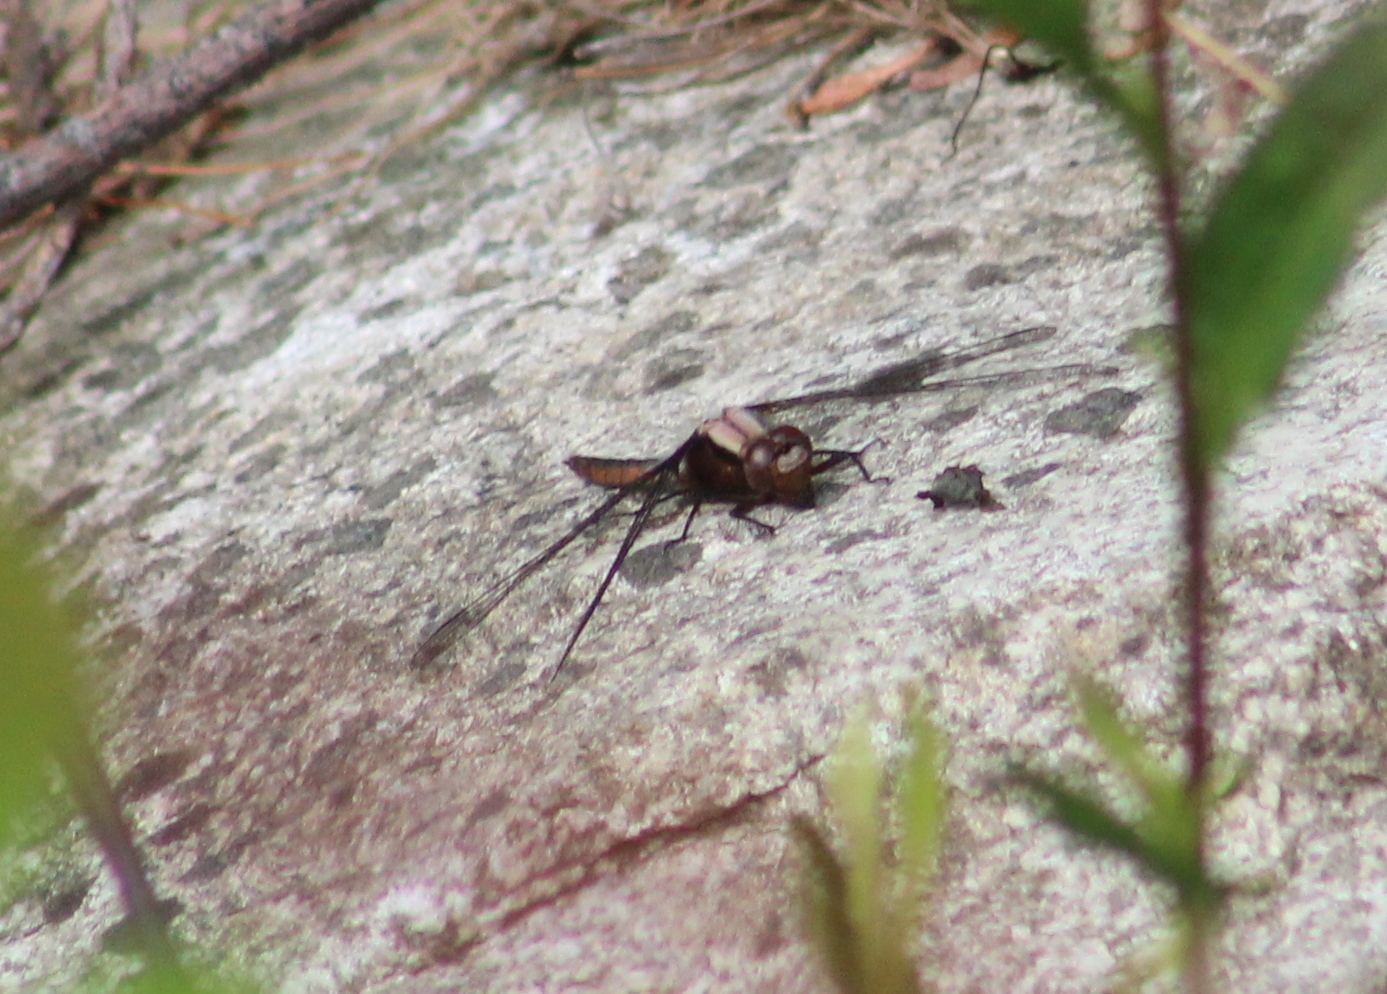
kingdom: Animalia
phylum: Arthropoda
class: Insecta
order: Odonata
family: Libellulidae
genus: Ladona
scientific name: Ladona julia
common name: Chalk-fronted corporal
